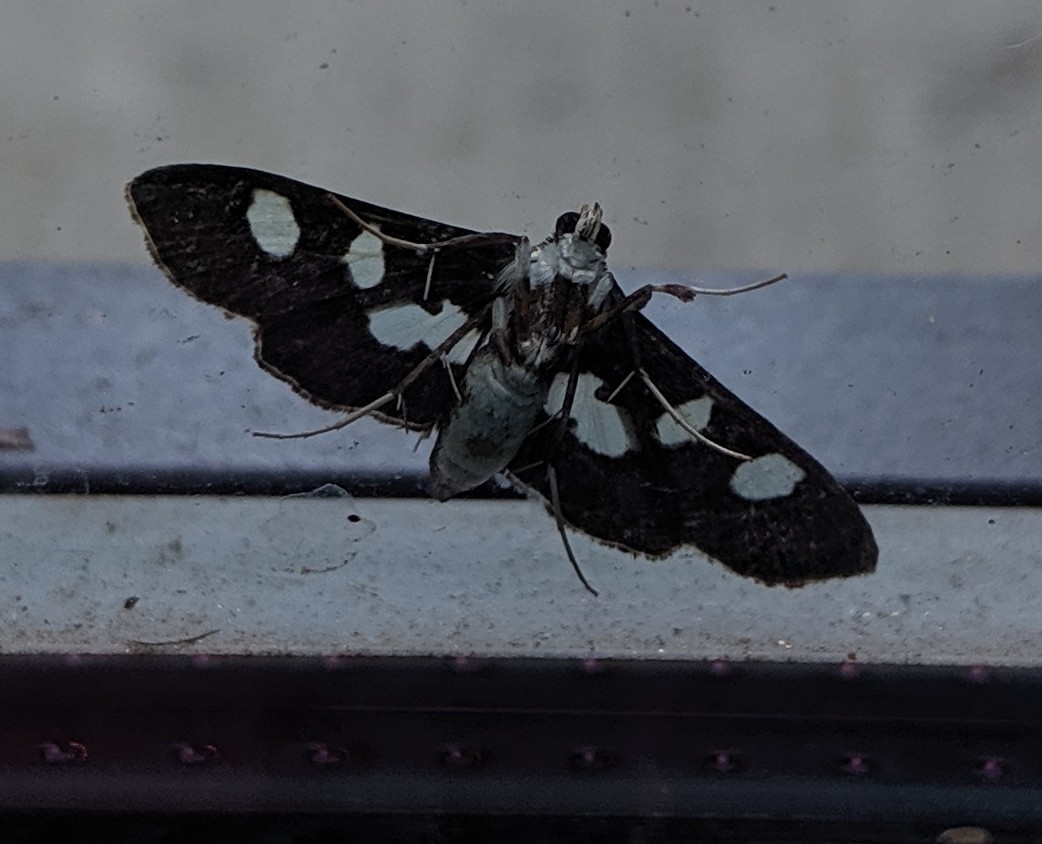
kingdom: Animalia
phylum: Arthropoda
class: Insecta
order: Lepidoptera
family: Crambidae
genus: Desmia
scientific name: Desmia funeralis
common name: Grape leaf folder moth
